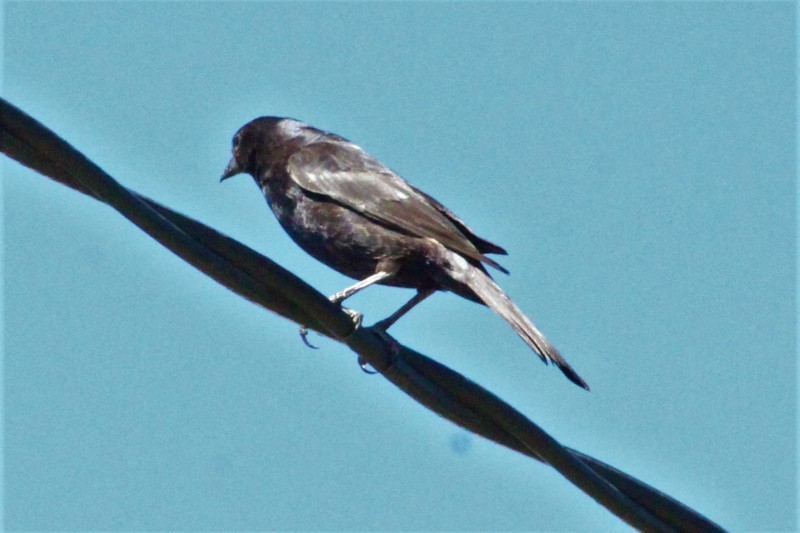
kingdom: Animalia
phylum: Chordata
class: Aves
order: Passeriformes
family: Icteridae
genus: Molothrus
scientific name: Molothrus bonariensis
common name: Shiny cowbird
